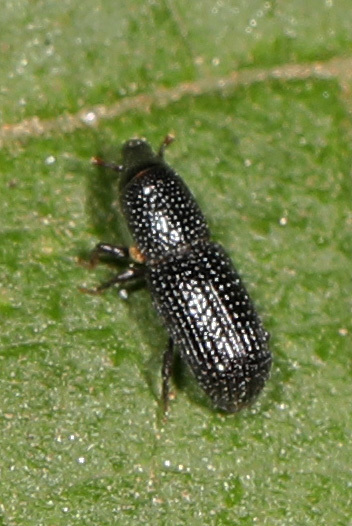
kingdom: Animalia
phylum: Arthropoda
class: Insecta
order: Coleoptera
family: Curculionidae
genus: Tomolips
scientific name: Tomolips quercicola
